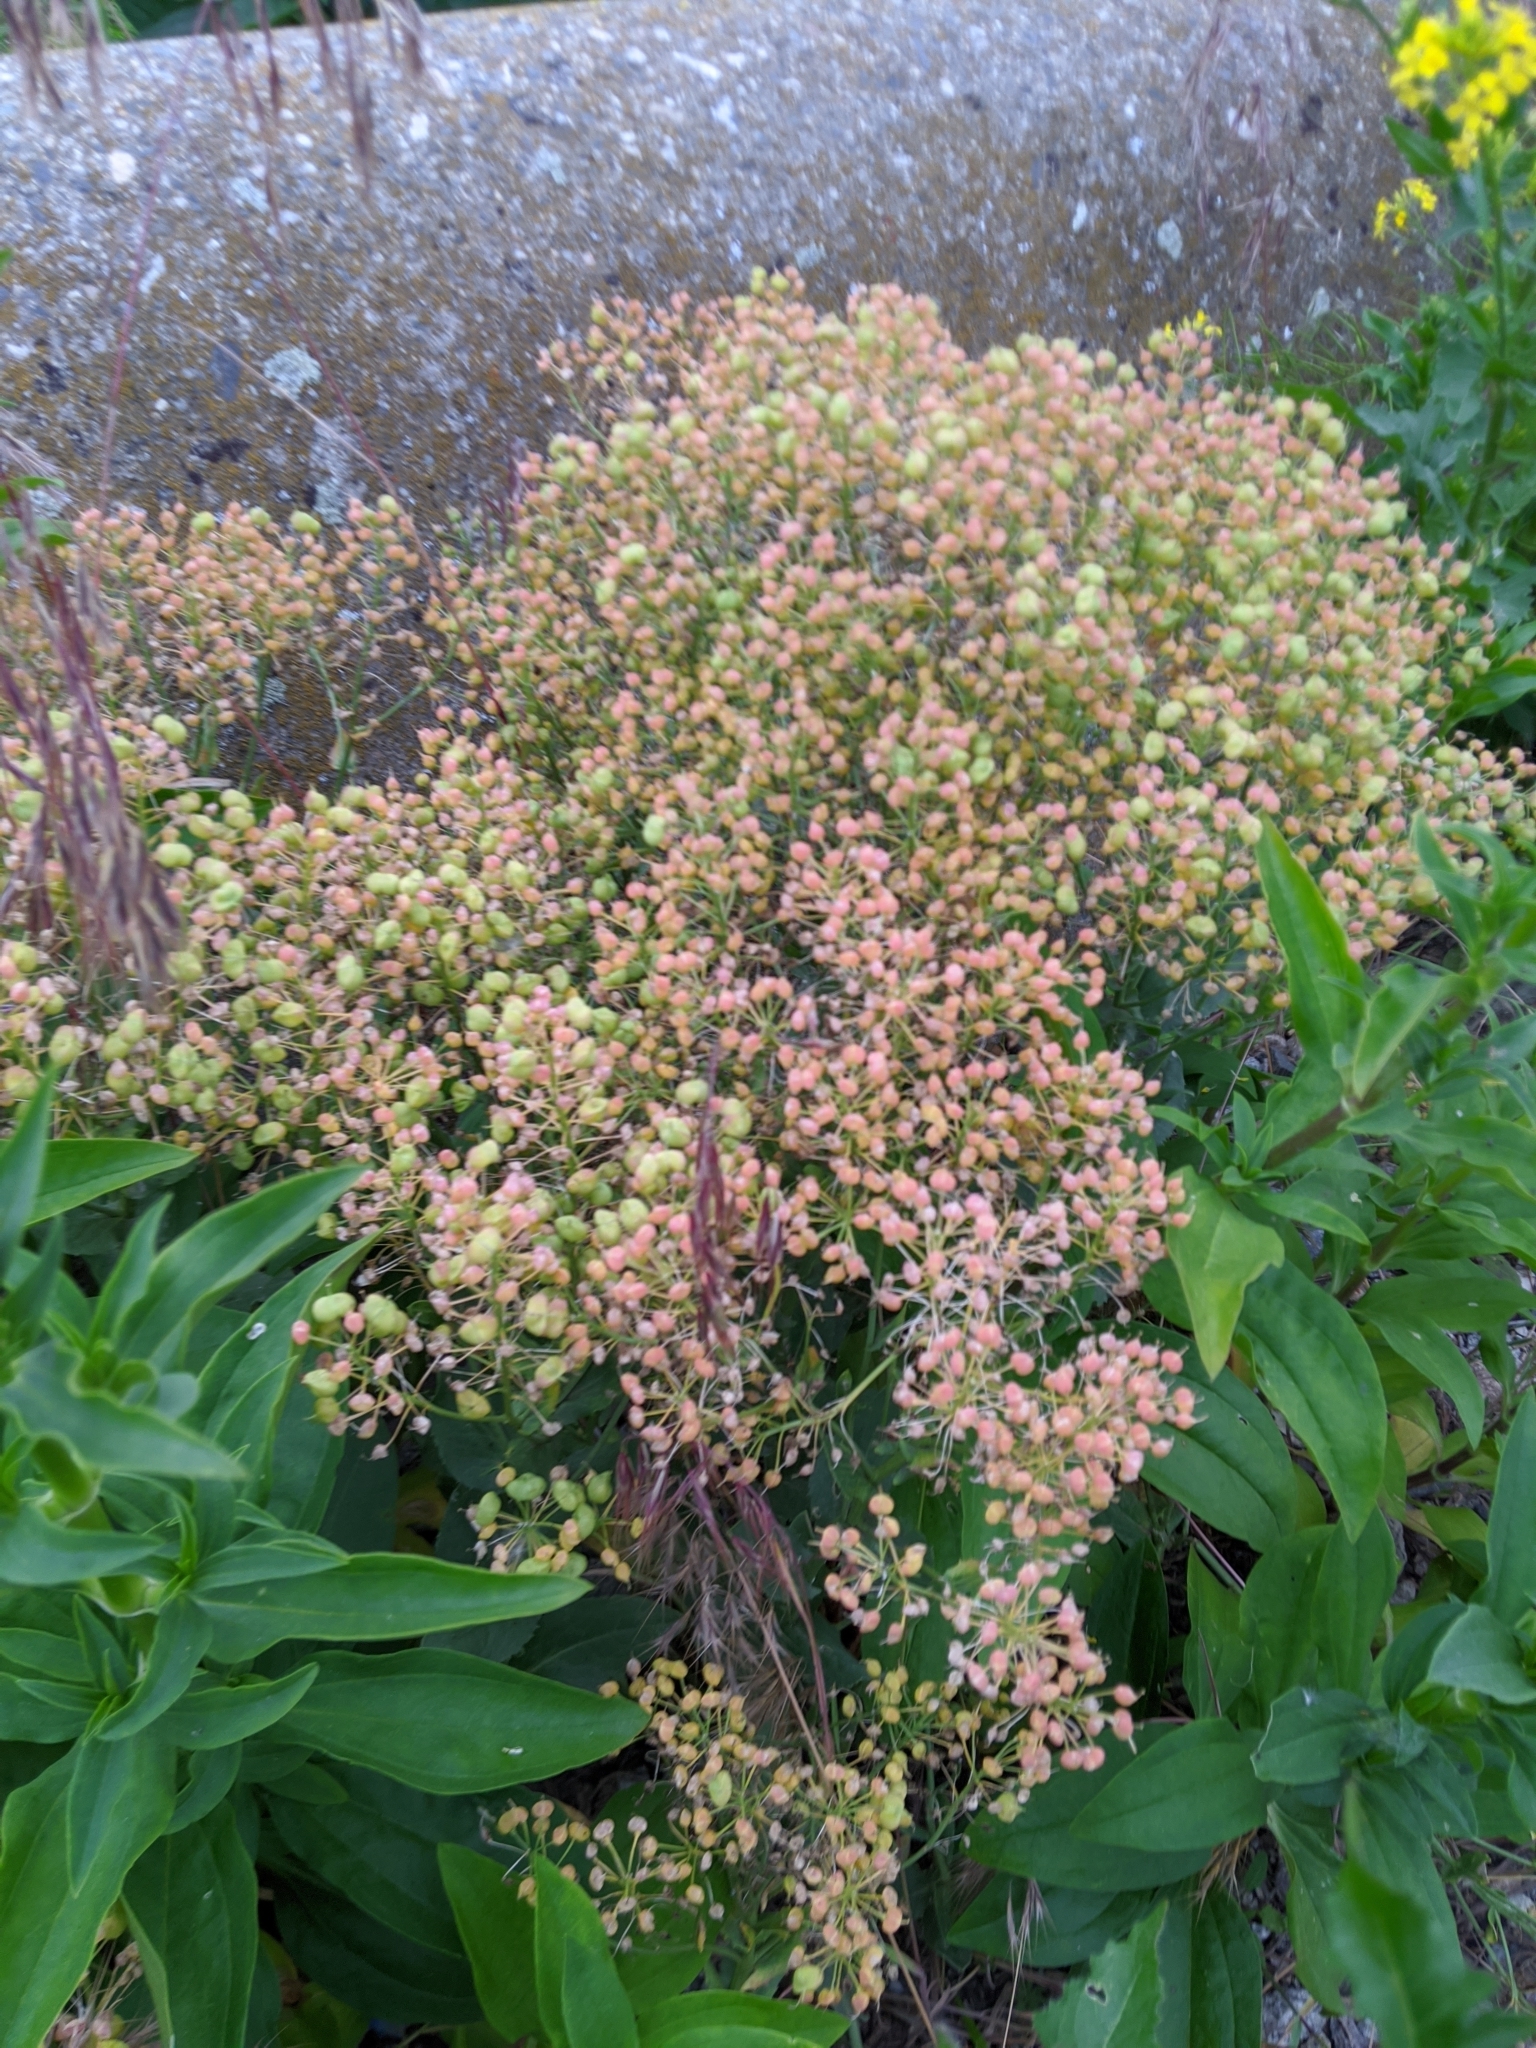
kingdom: Plantae
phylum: Tracheophyta
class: Magnoliopsida
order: Brassicales
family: Brassicaceae
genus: Lepidium
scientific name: Lepidium draba
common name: Hoary cress
